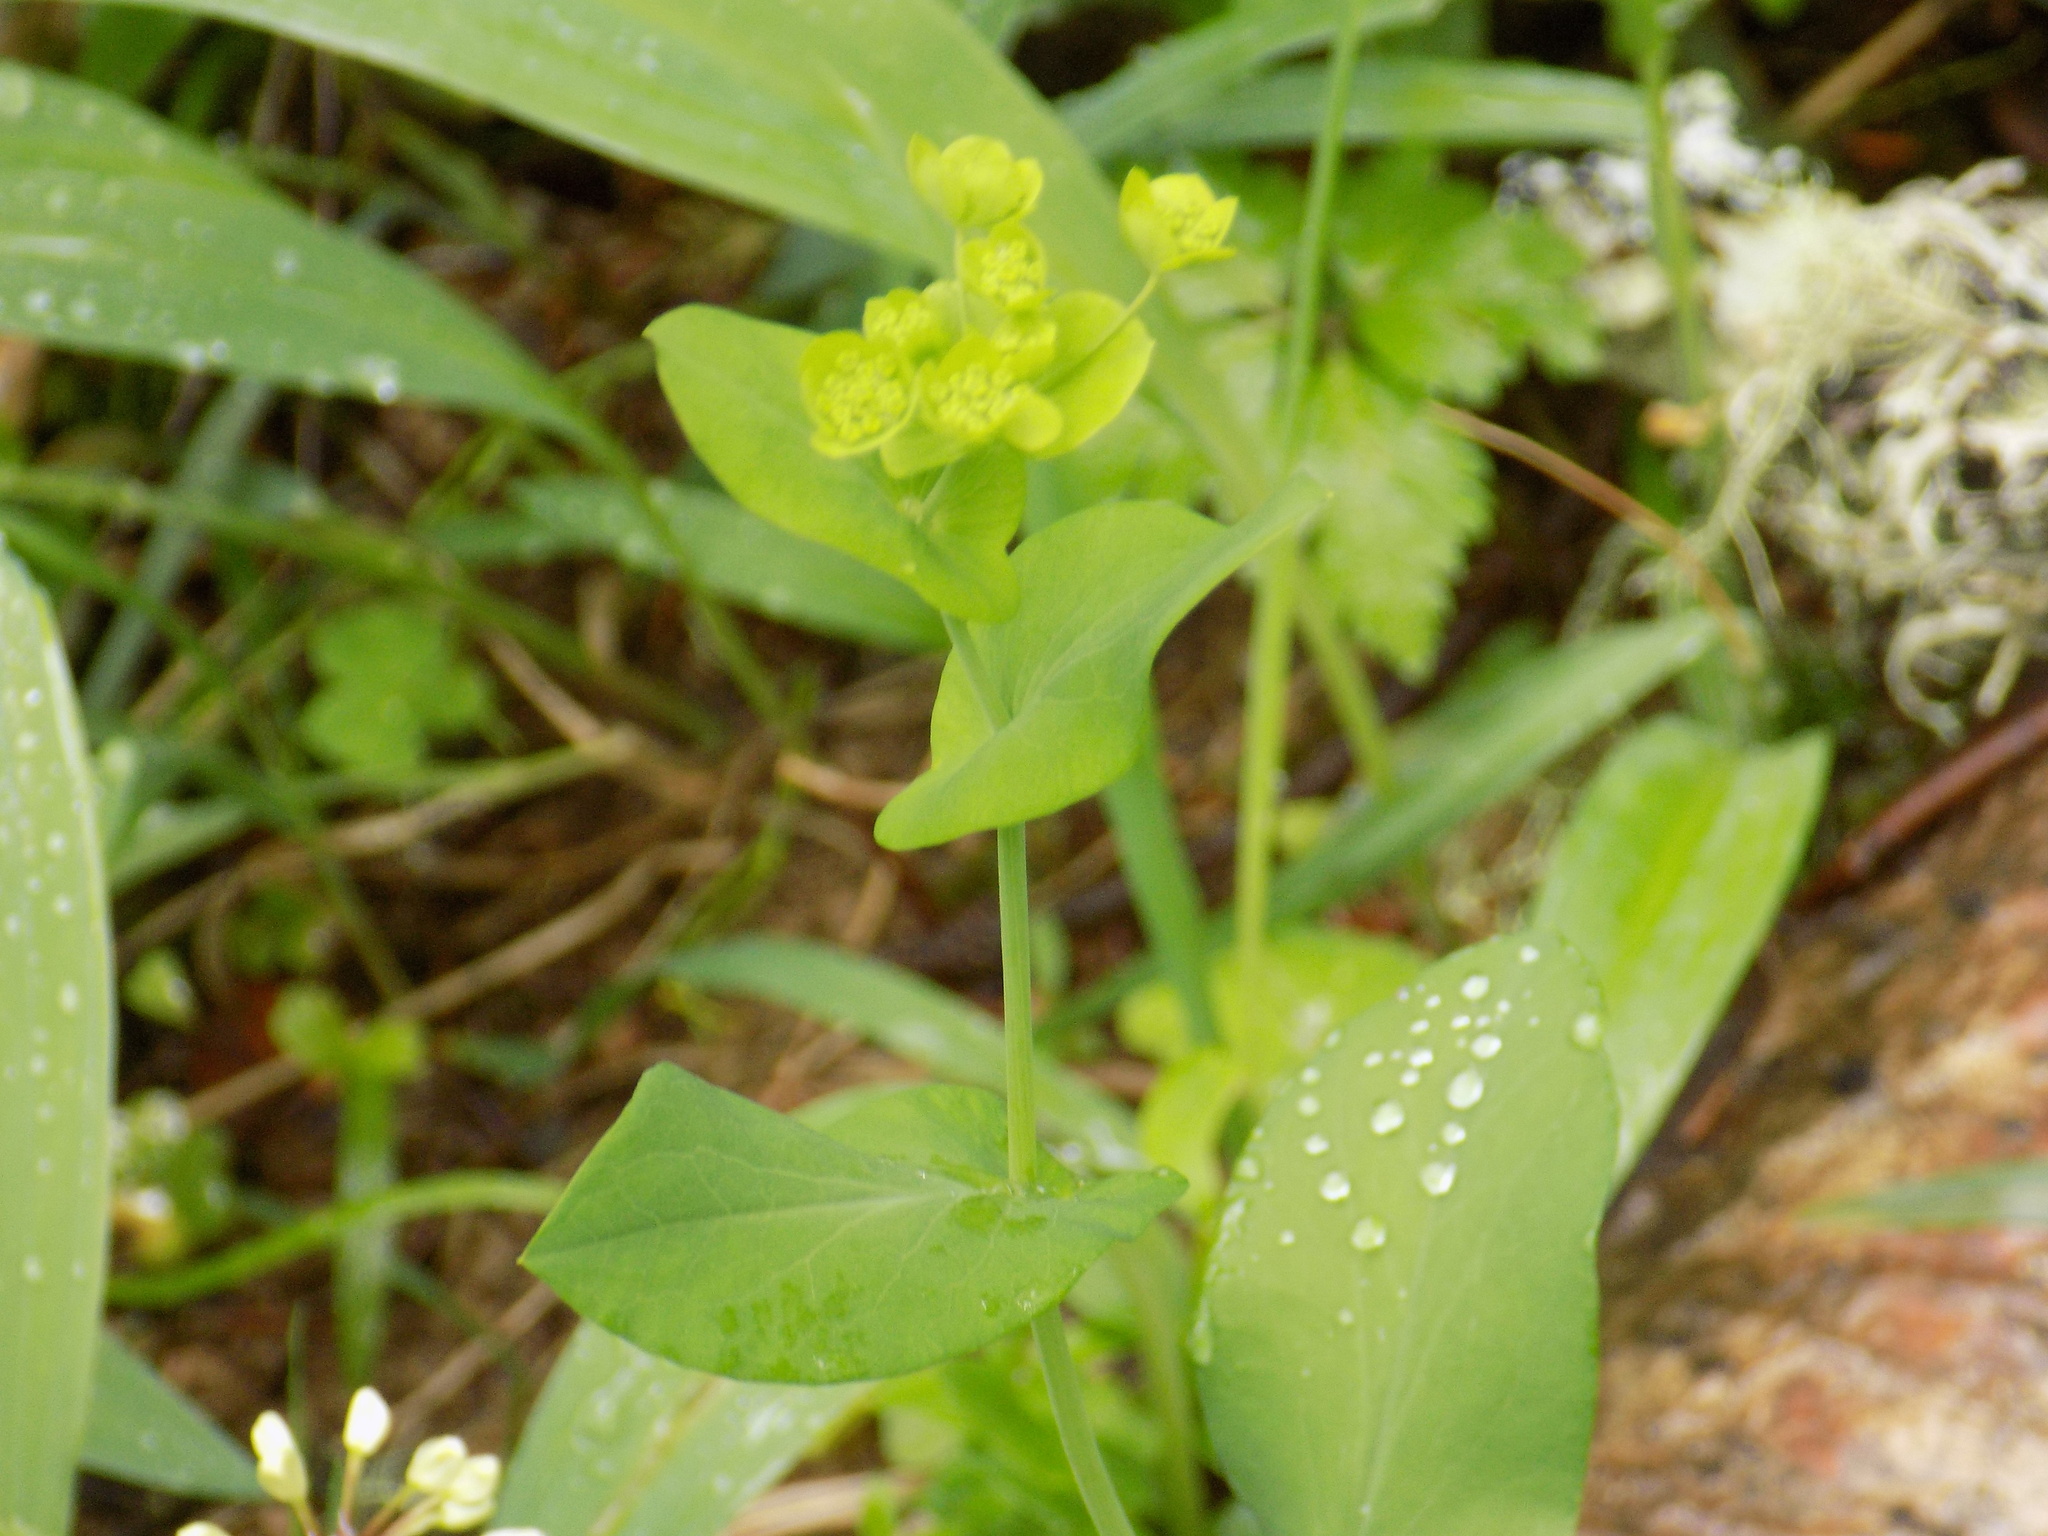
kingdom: Plantae
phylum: Tracheophyta
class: Magnoliopsida
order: Apiales
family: Apiaceae
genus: Bupleurum
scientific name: Bupleurum aureum
